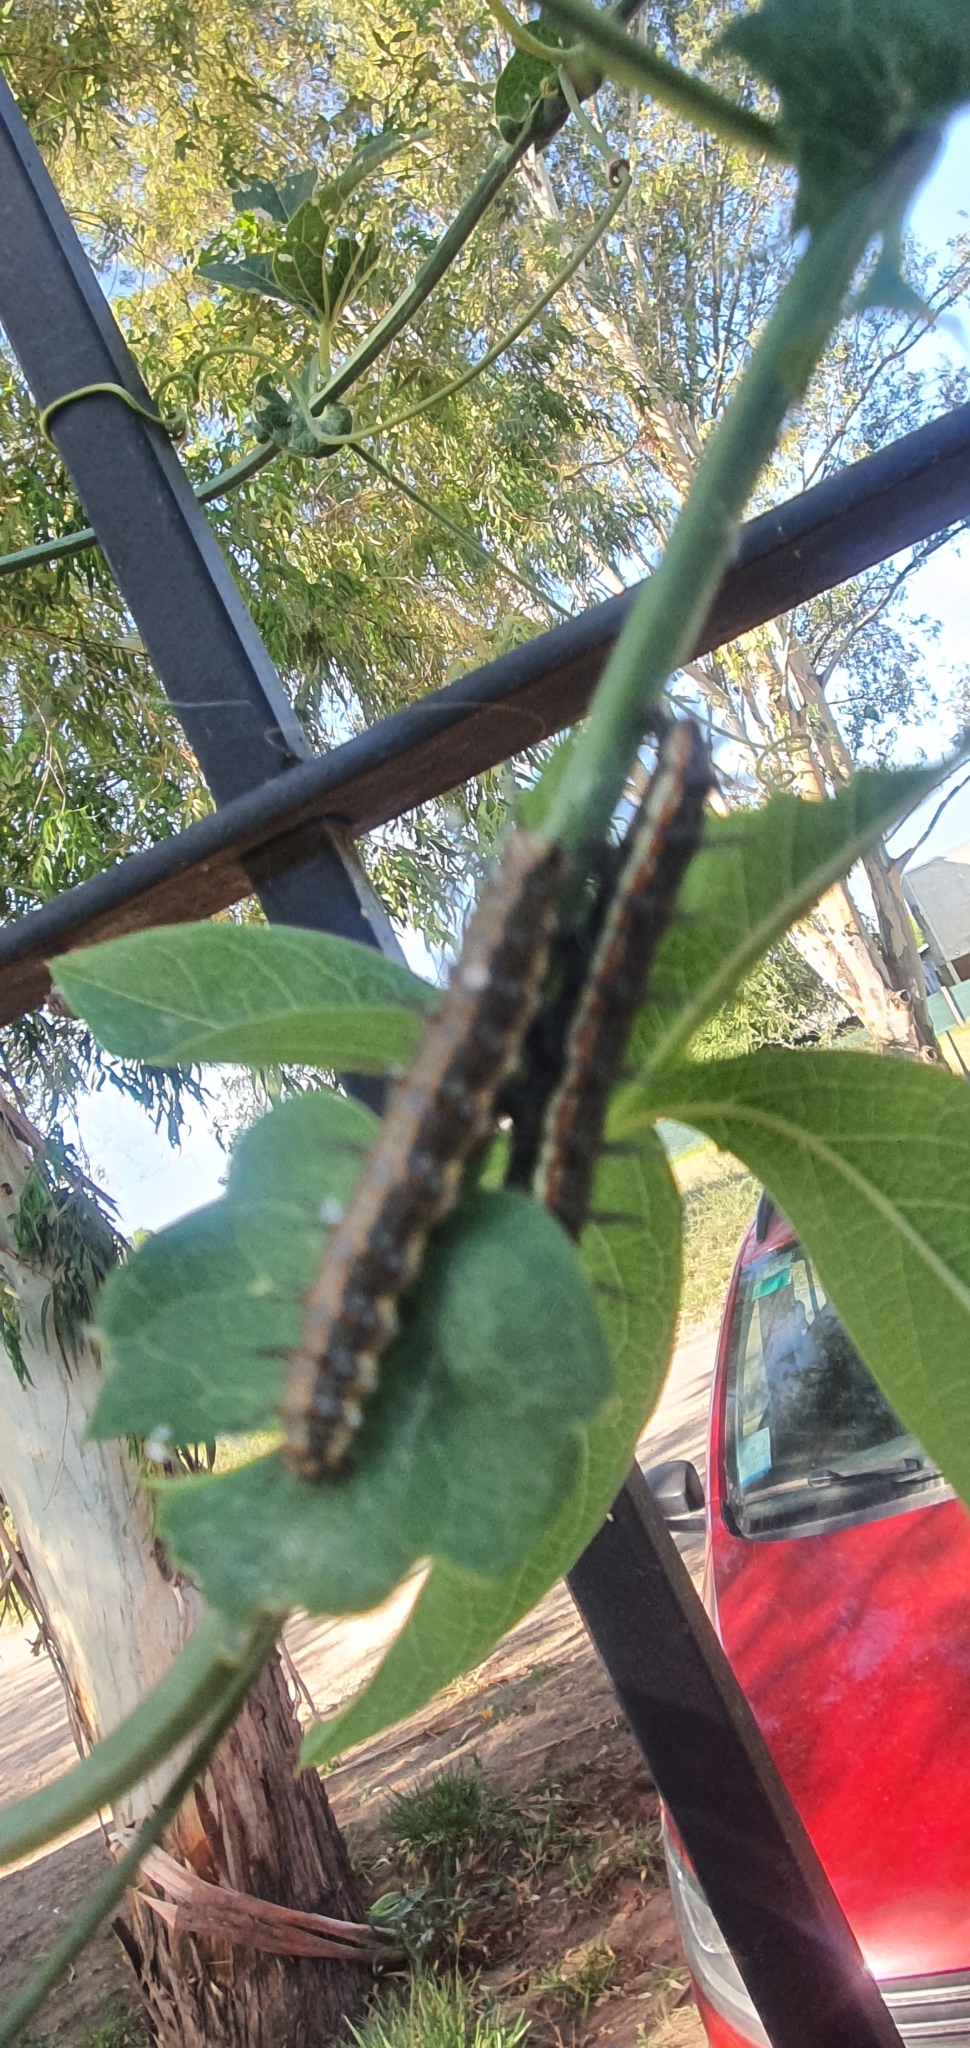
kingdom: Animalia
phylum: Arthropoda
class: Insecta
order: Lepidoptera
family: Nymphalidae
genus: Dione
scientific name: Dione vanillae
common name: Gulf fritillary
